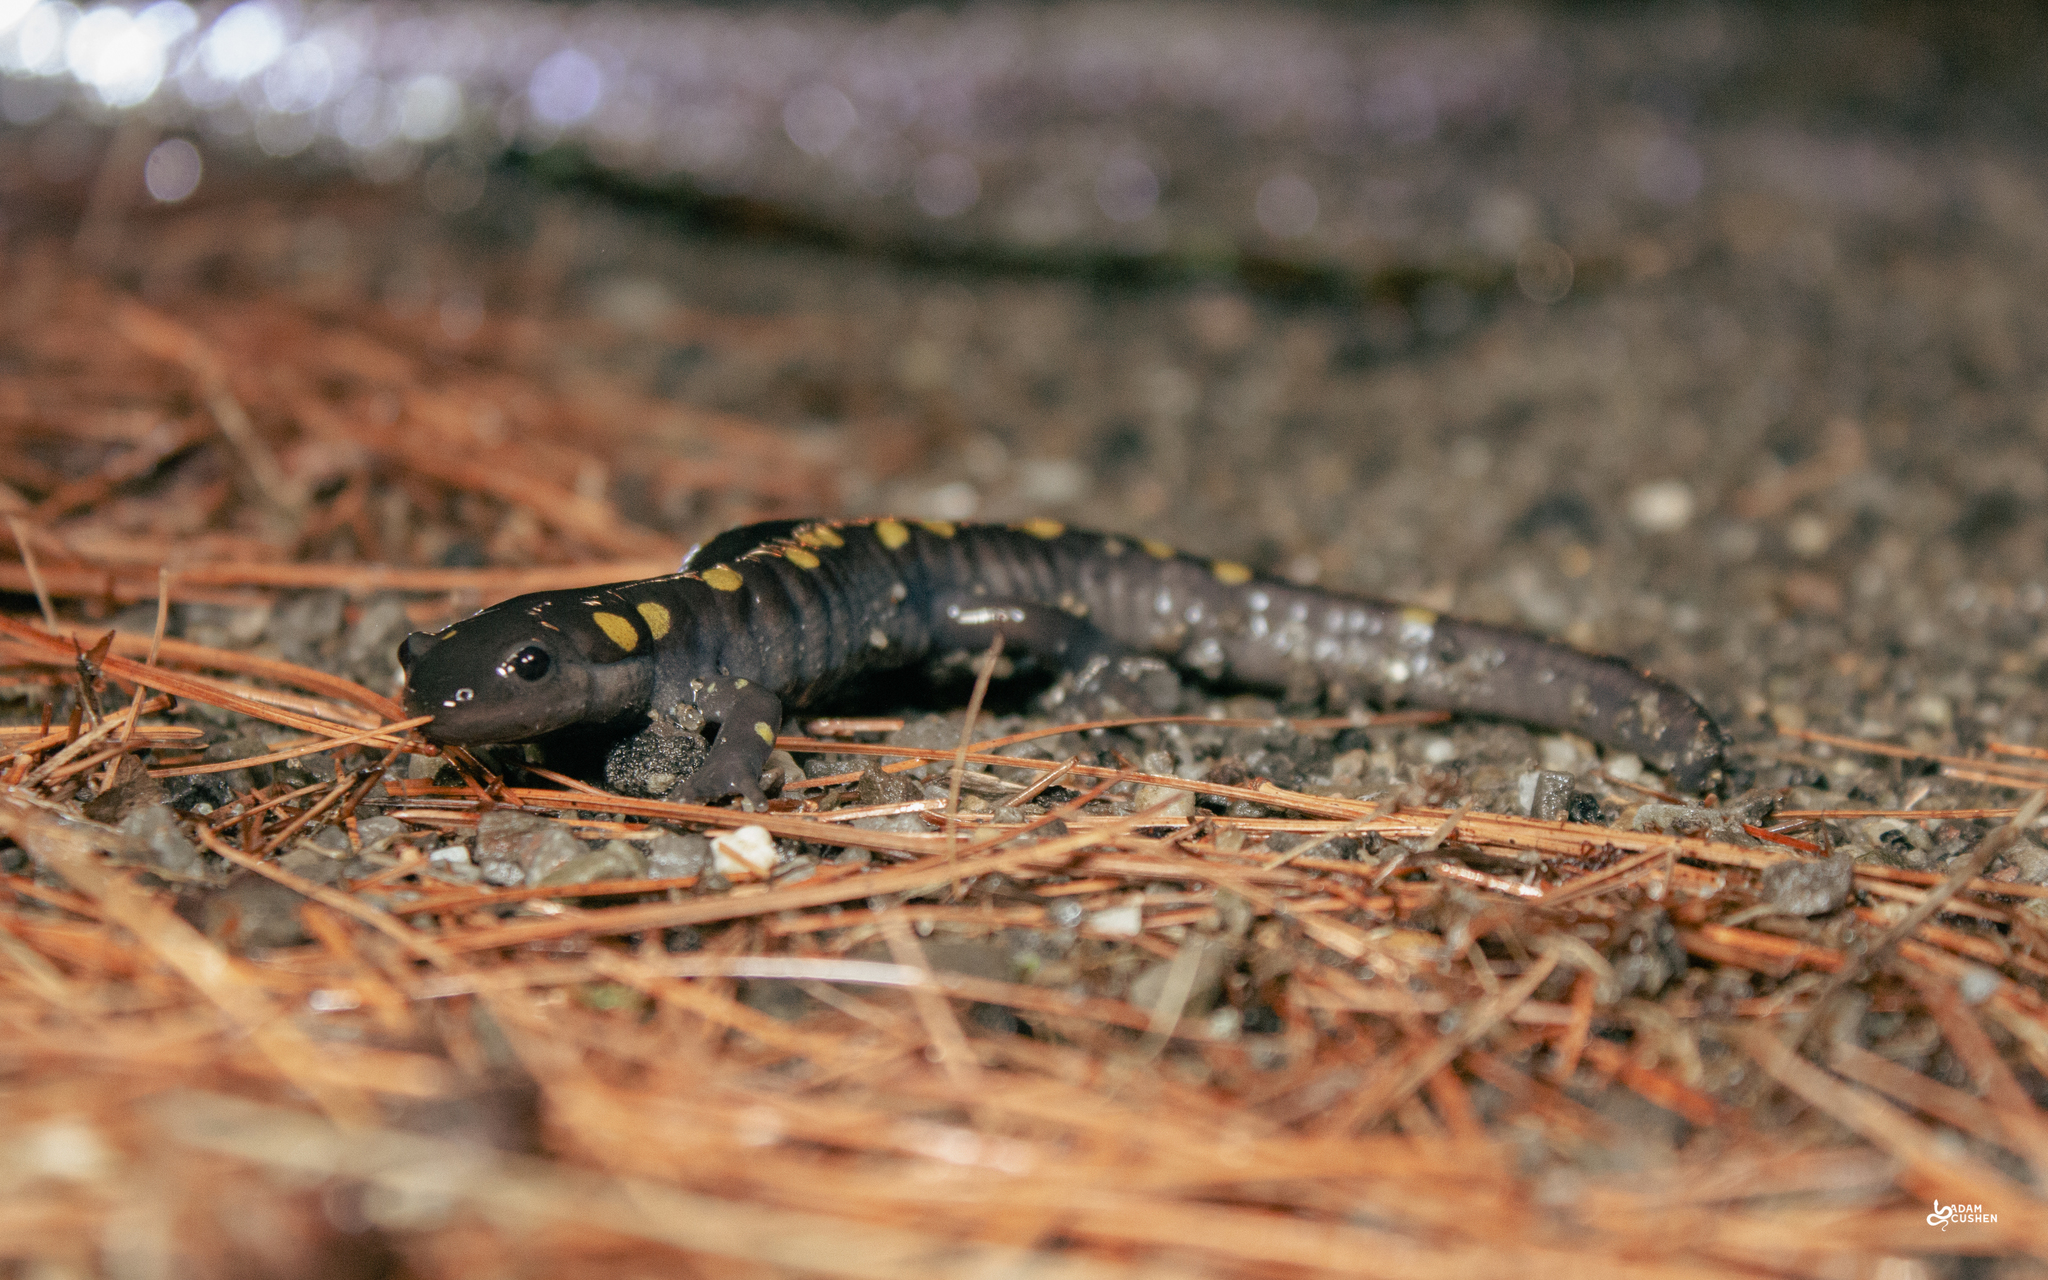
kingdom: Animalia
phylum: Chordata
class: Amphibia
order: Caudata
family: Ambystomatidae
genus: Ambystoma
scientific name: Ambystoma maculatum
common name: Spotted salamander
